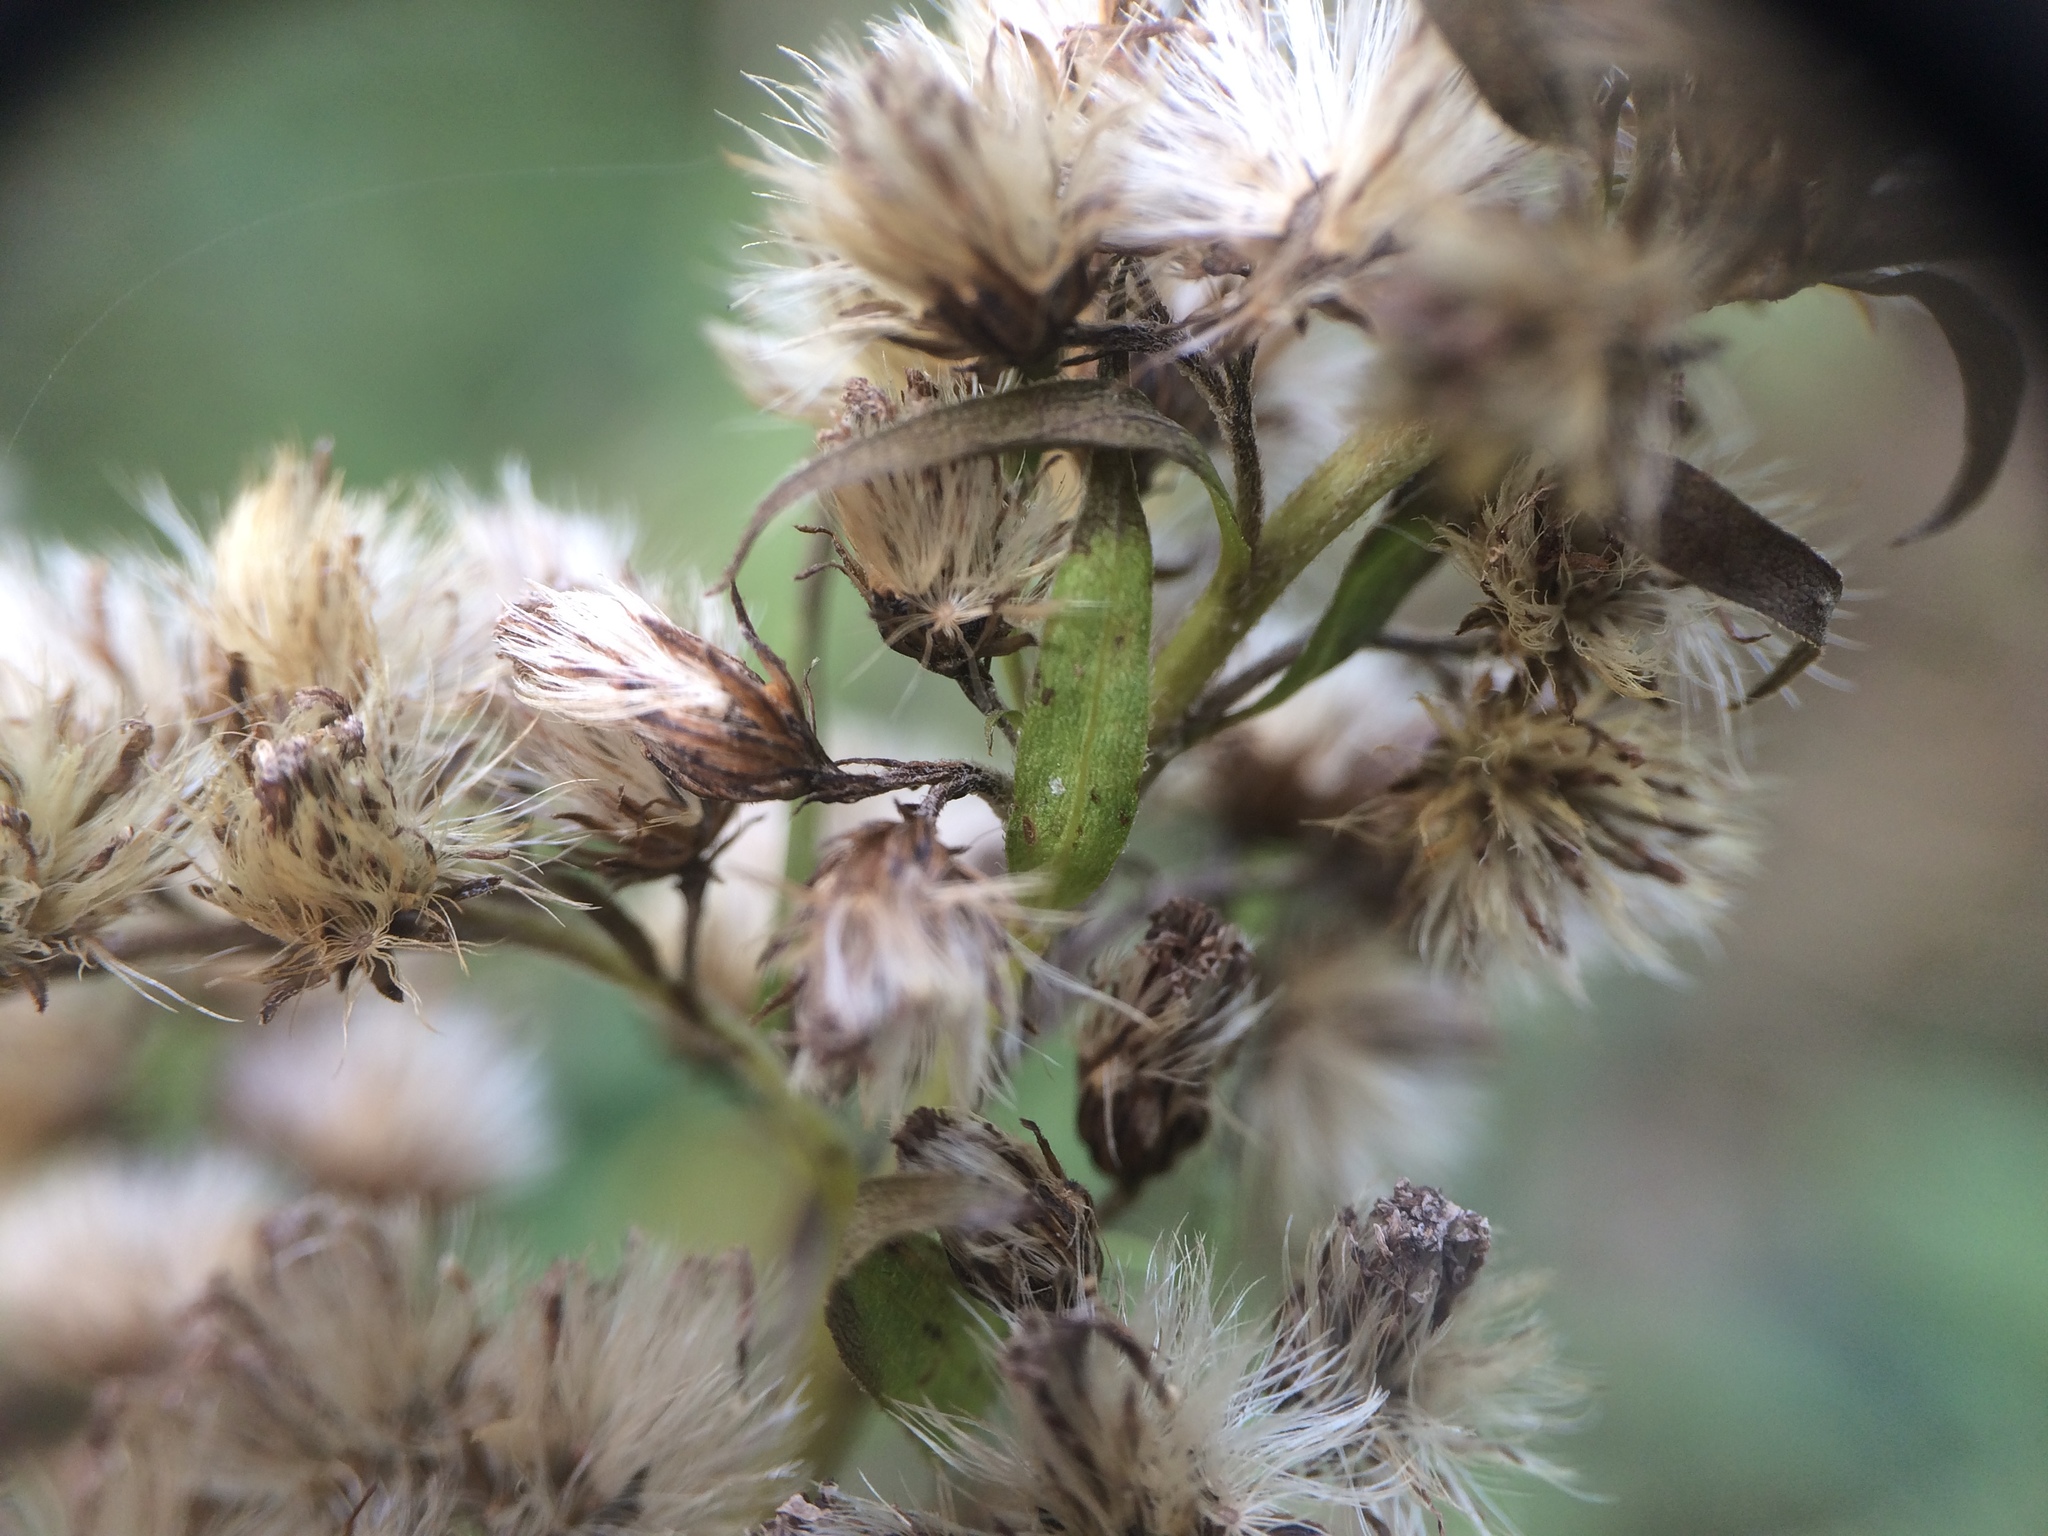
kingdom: Plantae
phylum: Tracheophyta
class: Magnoliopsida
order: Asterales
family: Asteraceae
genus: Solidago
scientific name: Solidago gigantea
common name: Giant goldenrod
